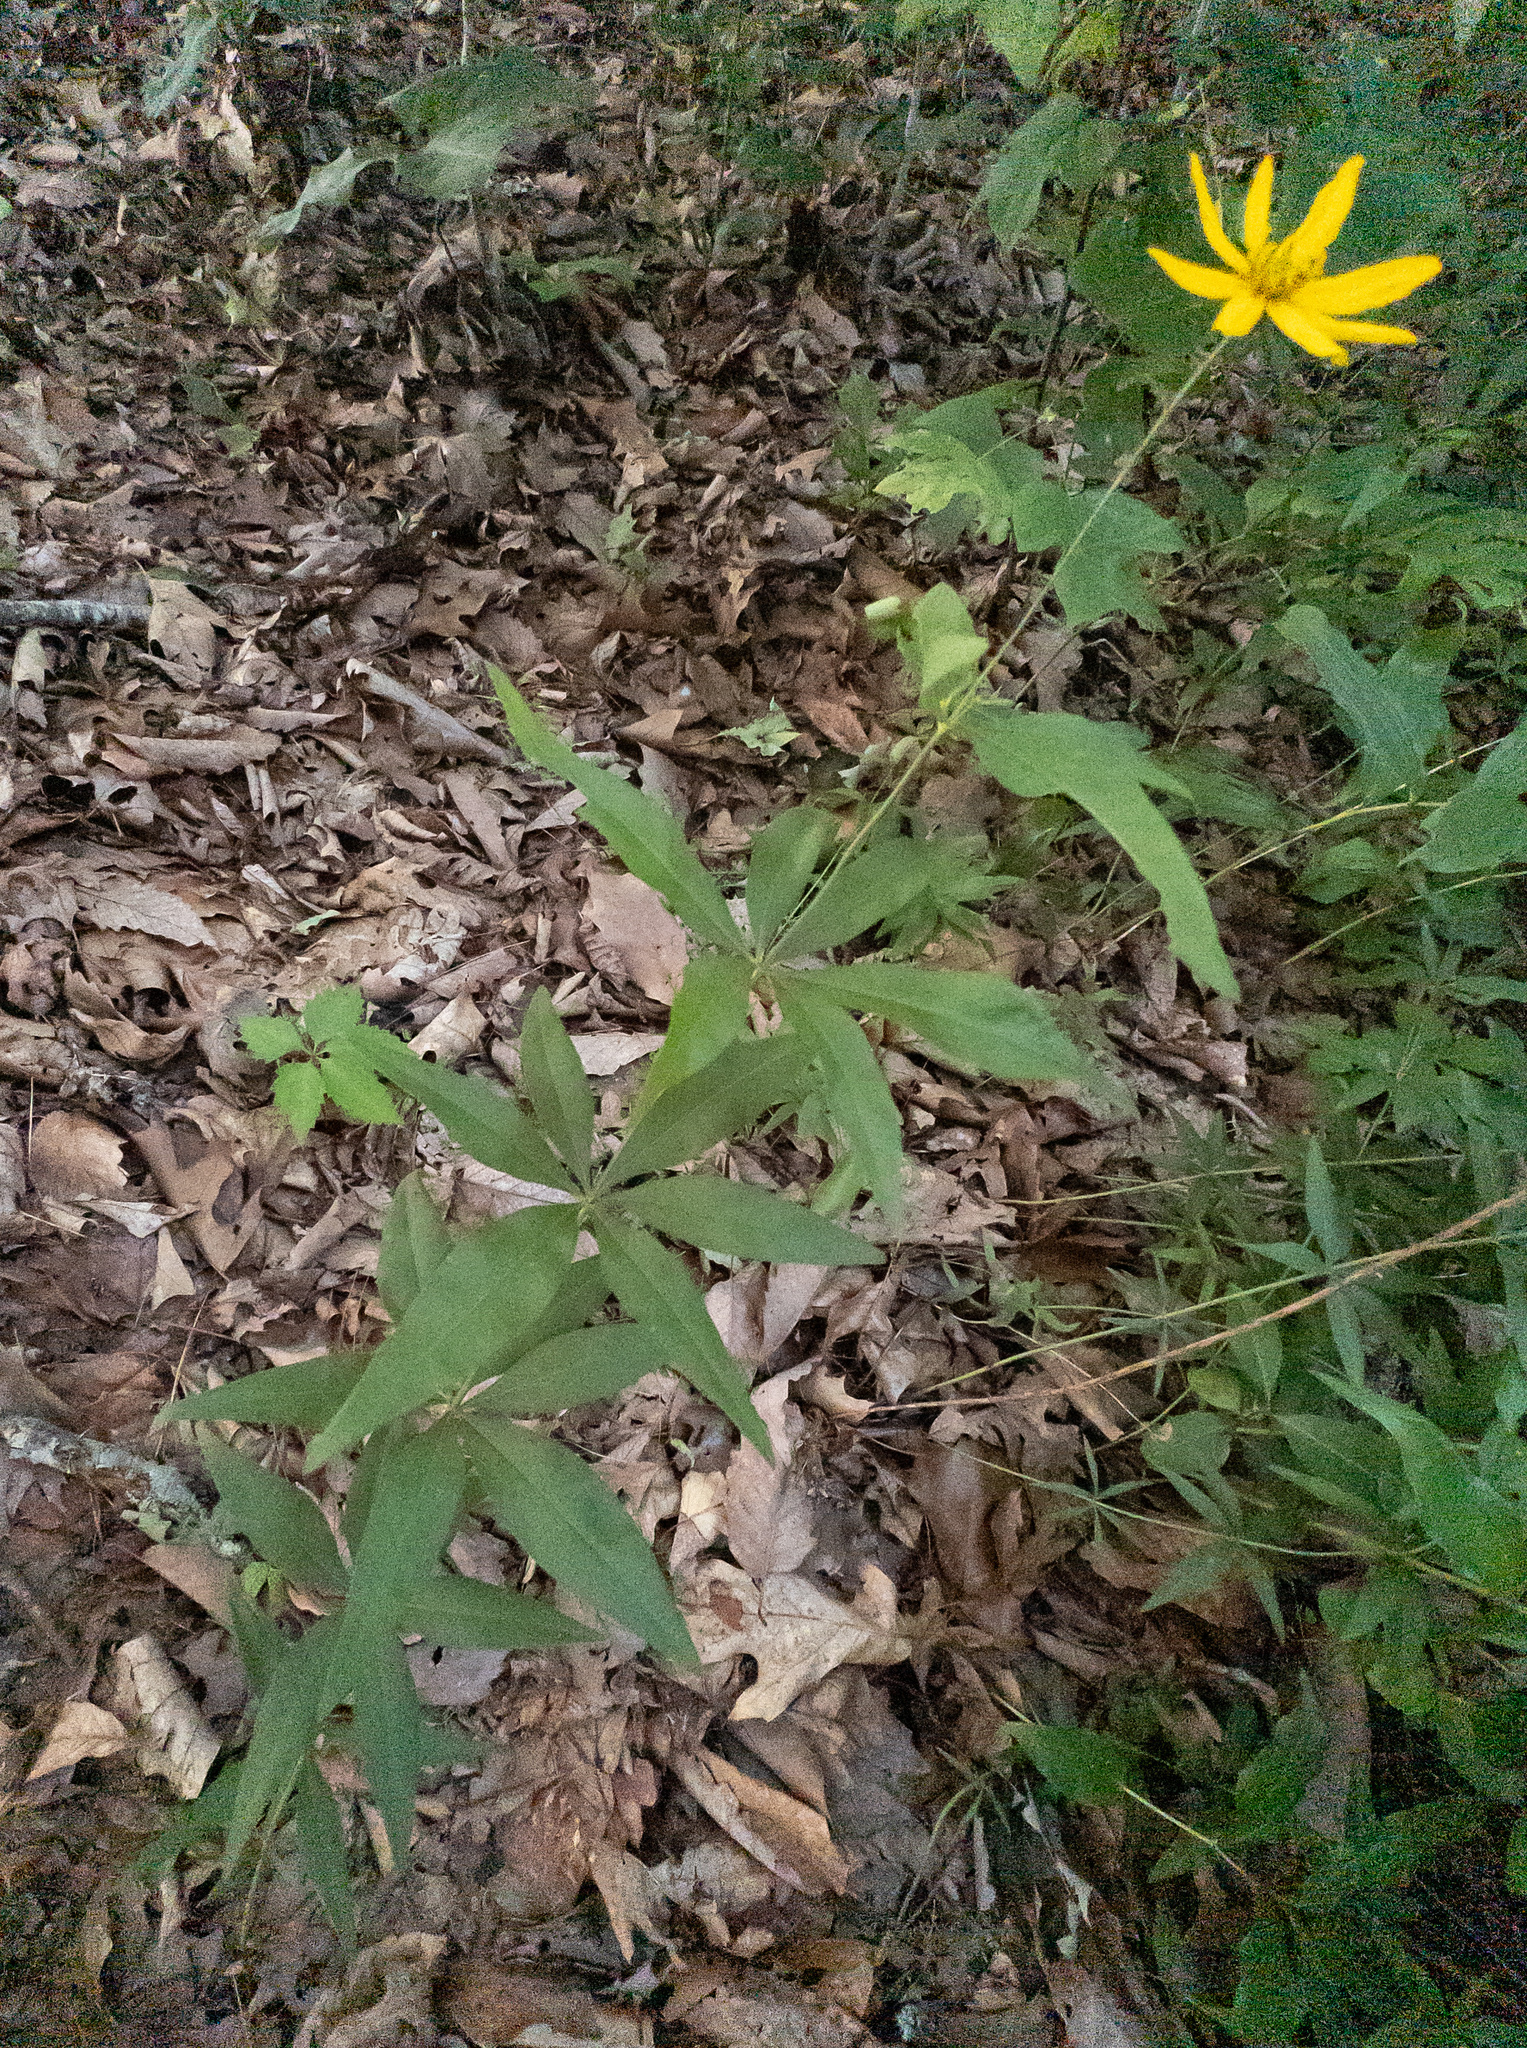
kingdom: Plantae
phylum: Tracheophyta
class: Magnoliopsida
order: Asterales
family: Asteraceae
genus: Coreopsis
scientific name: Coreopsis major
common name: Forest tickseed
